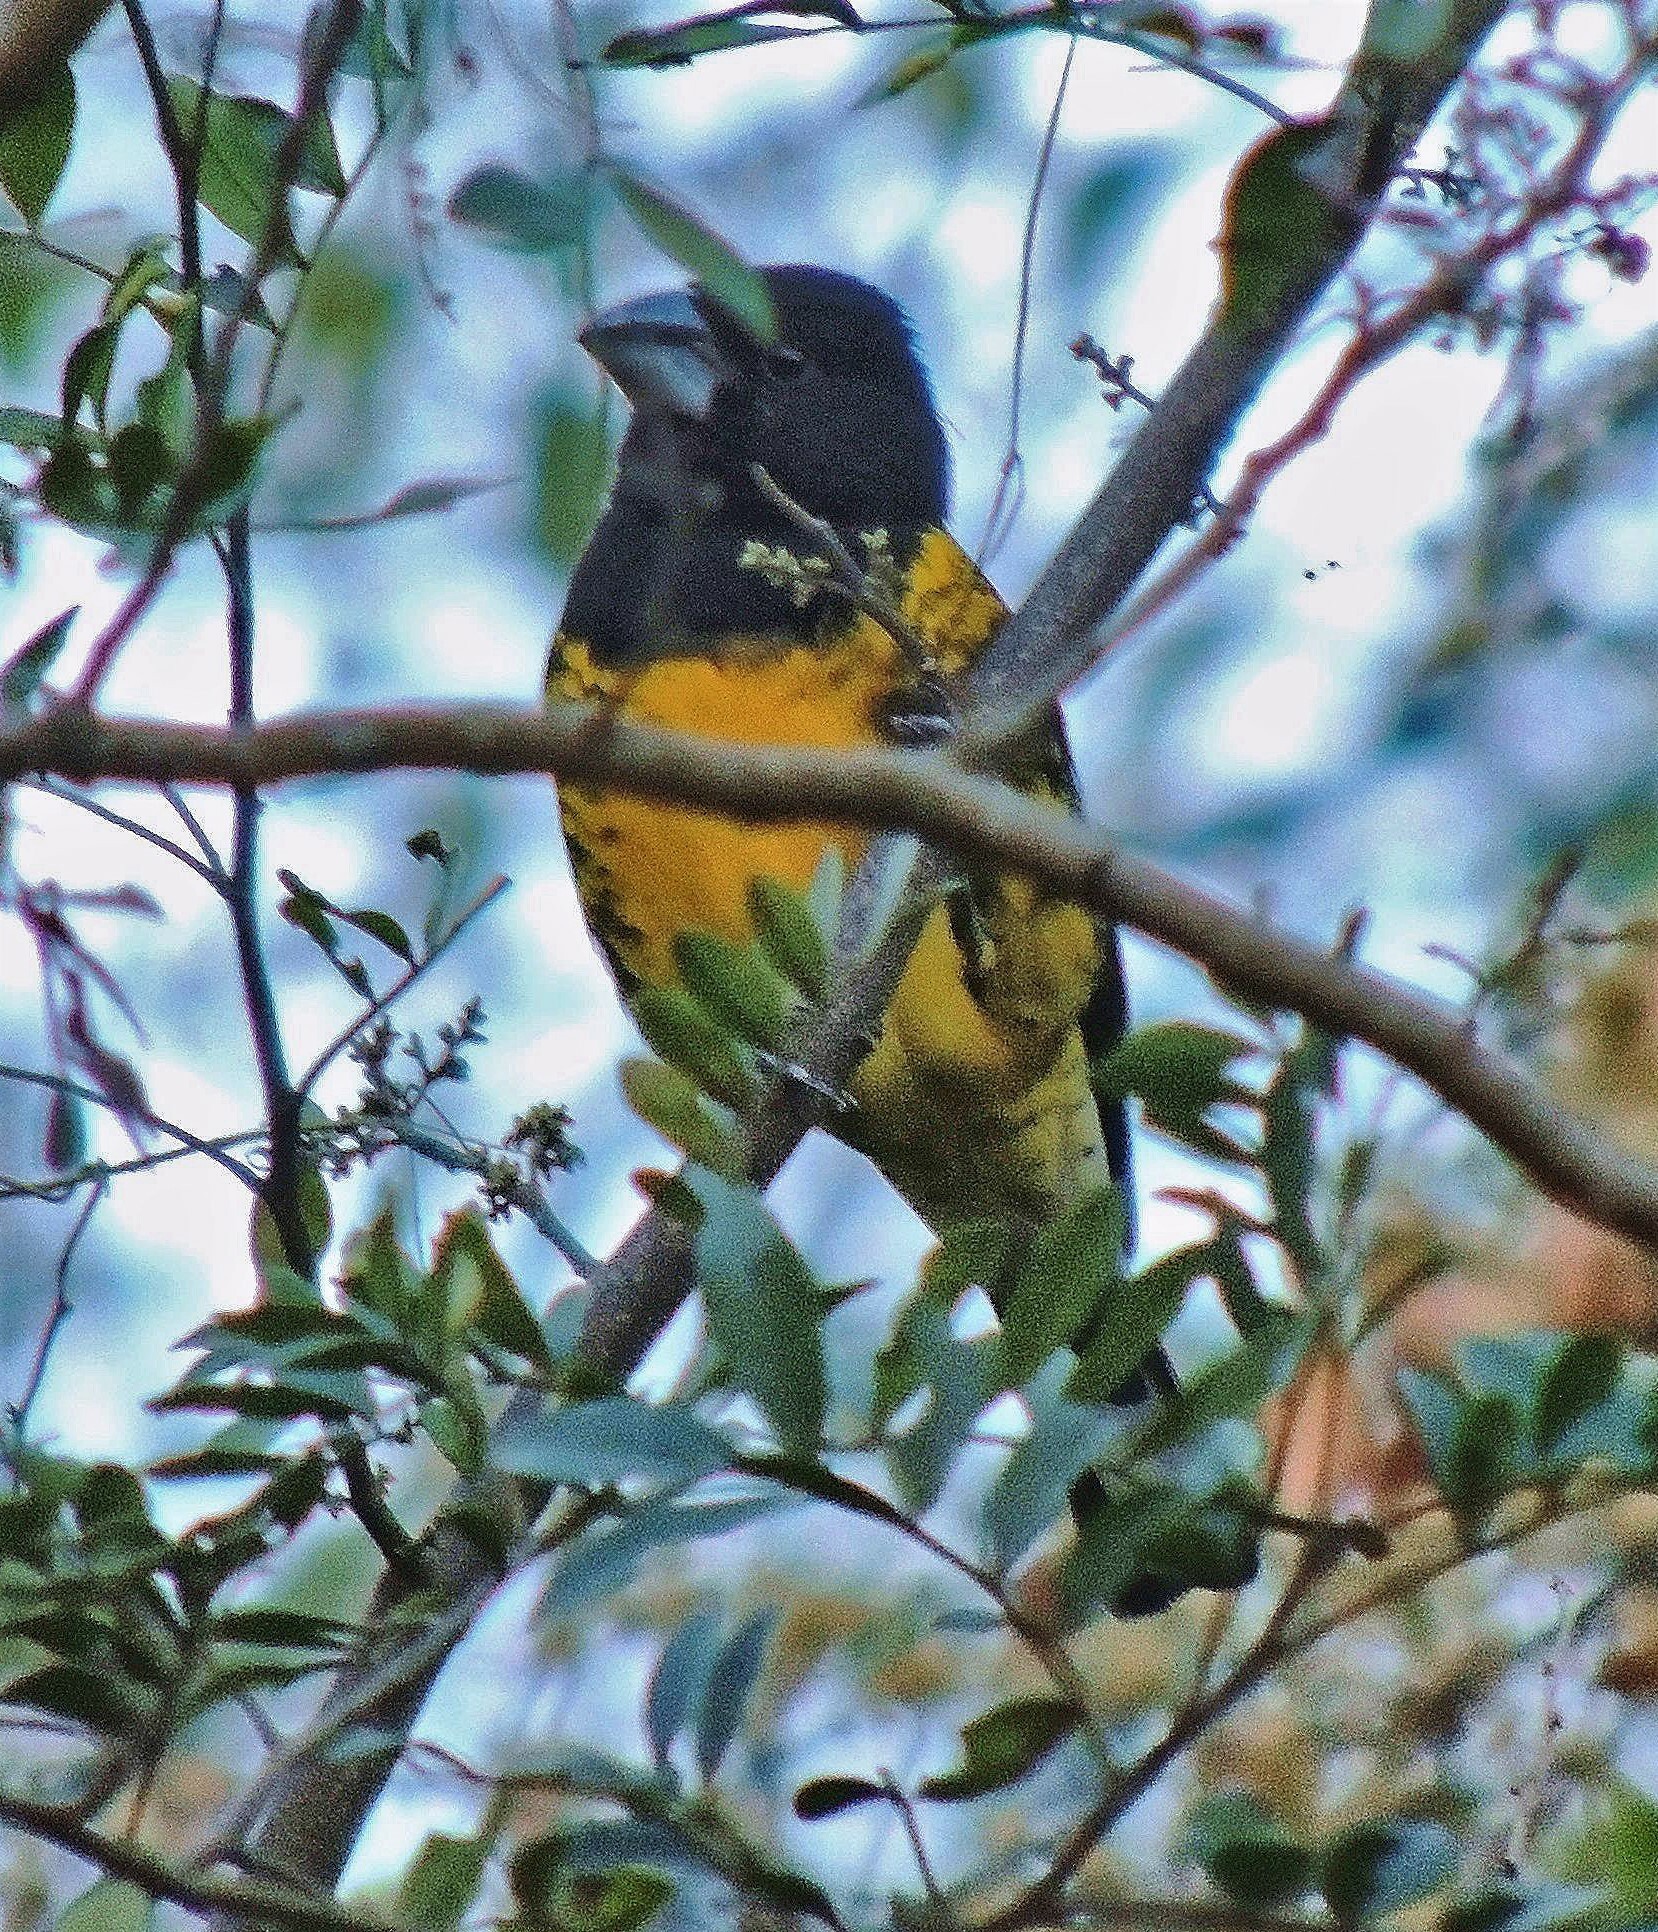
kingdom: Animalia
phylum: Chordata
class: Aves
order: Passeriformes
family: Cardinalidae
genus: Pheucticus
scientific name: Pheucticus aureoventris
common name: Black-backed grosbeak
